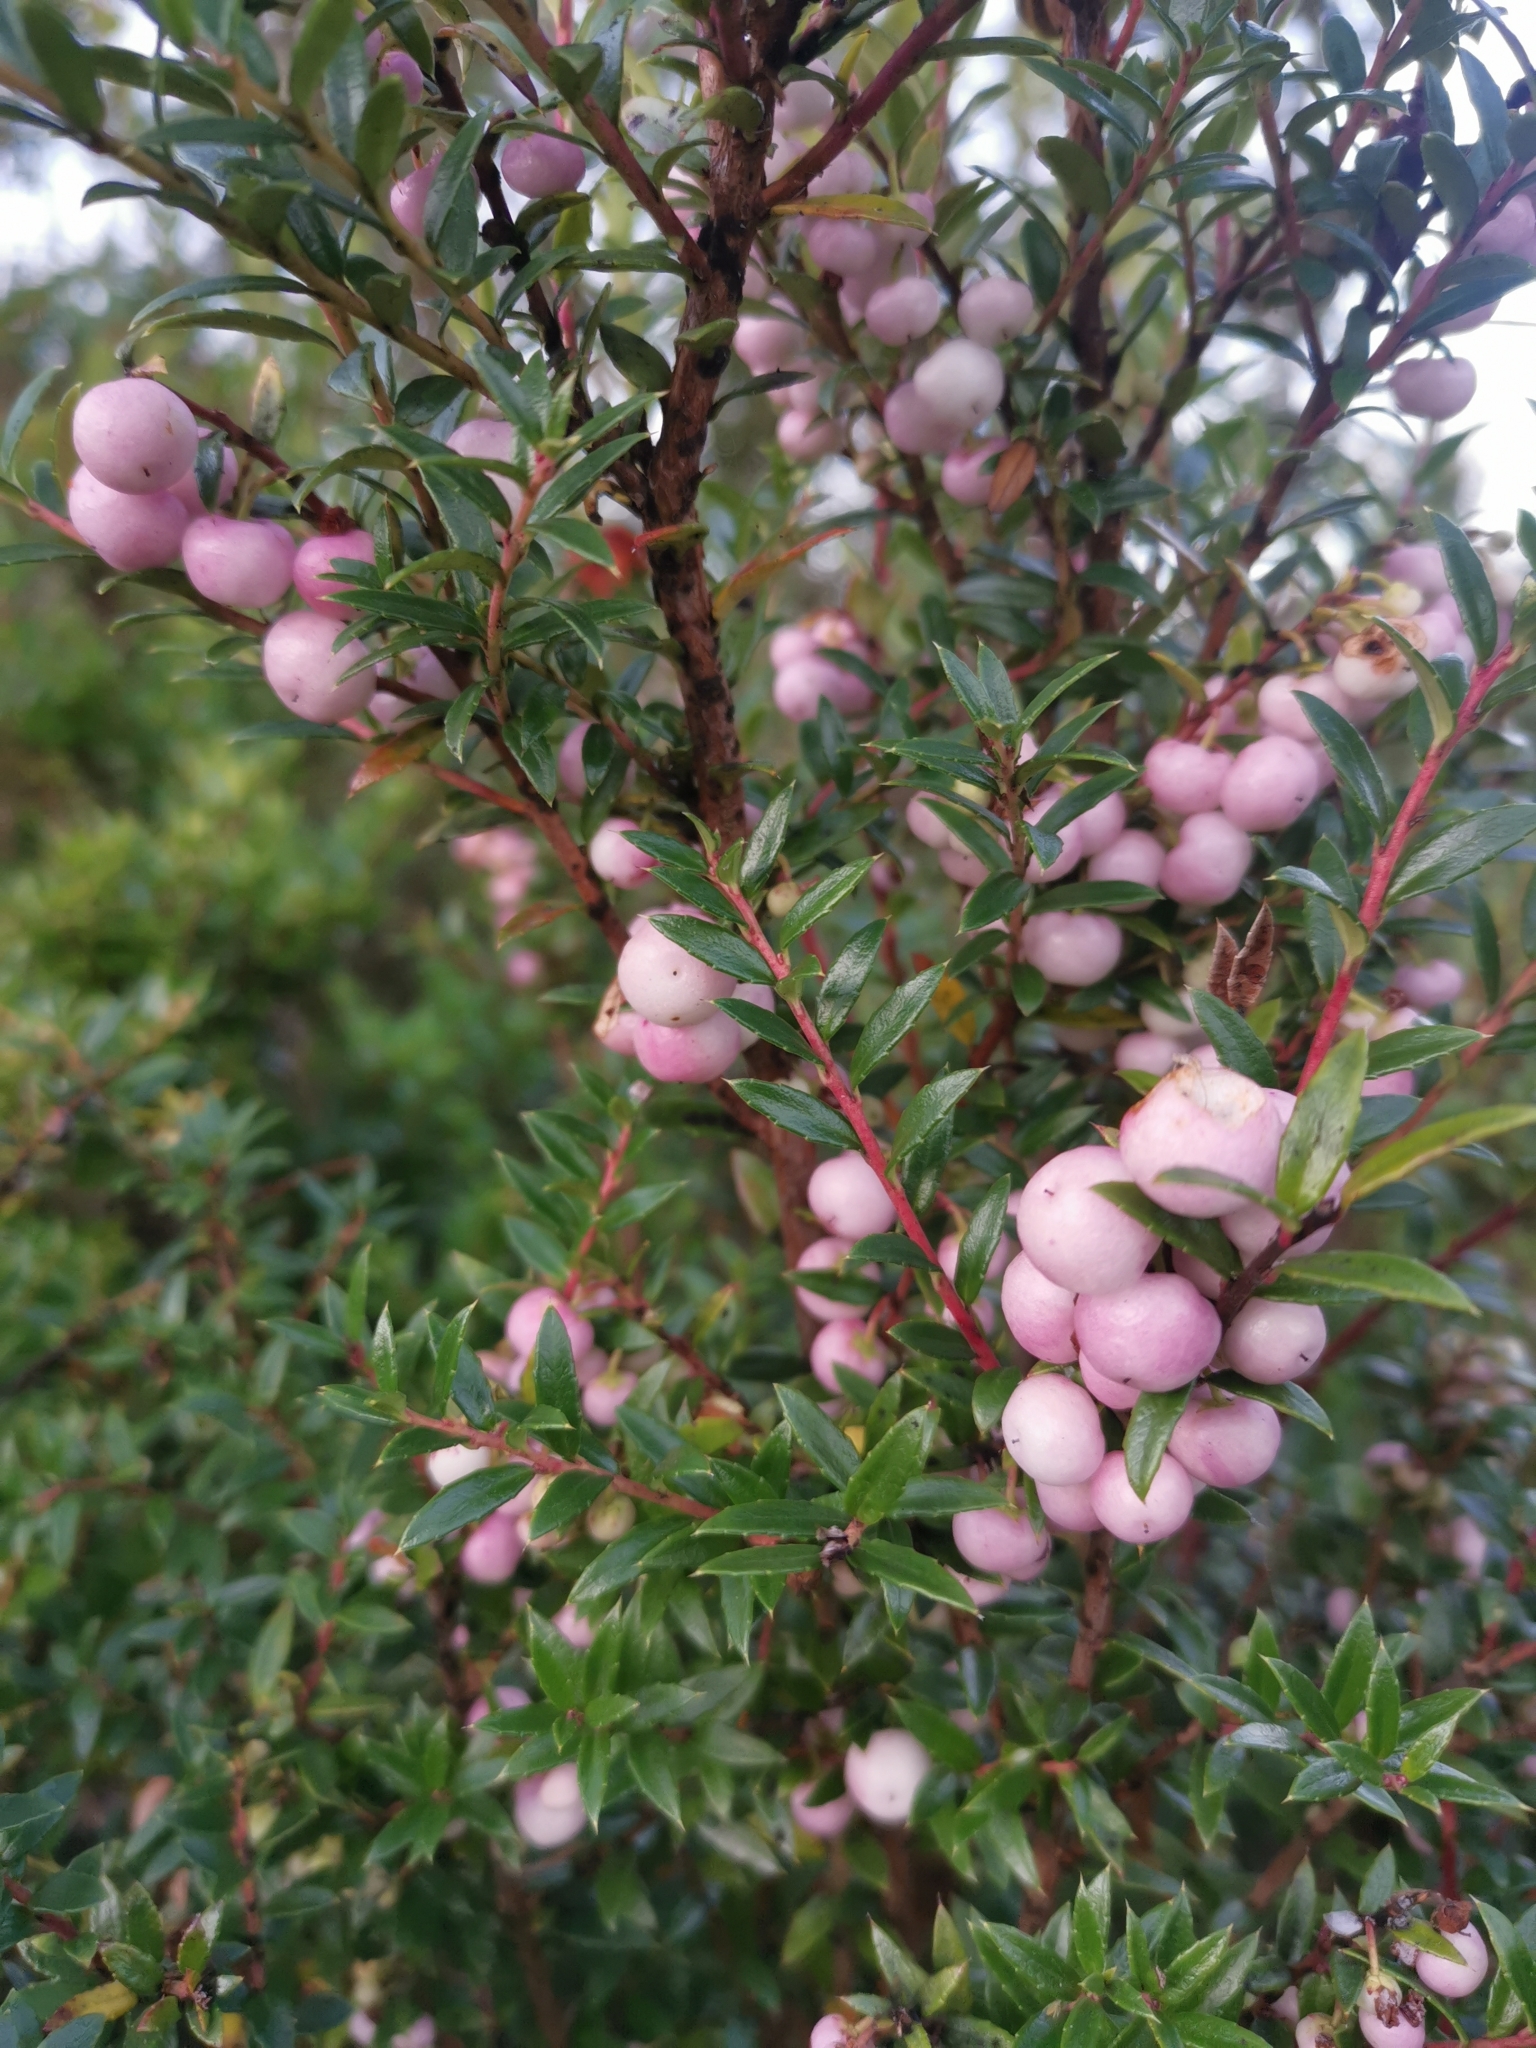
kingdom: Plantae
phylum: Tracheophyta
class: Magnoliopsida
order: Ericales
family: Ericaceae
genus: Gaultheria
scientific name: Gaultheria mucronata
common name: Prickly heath
